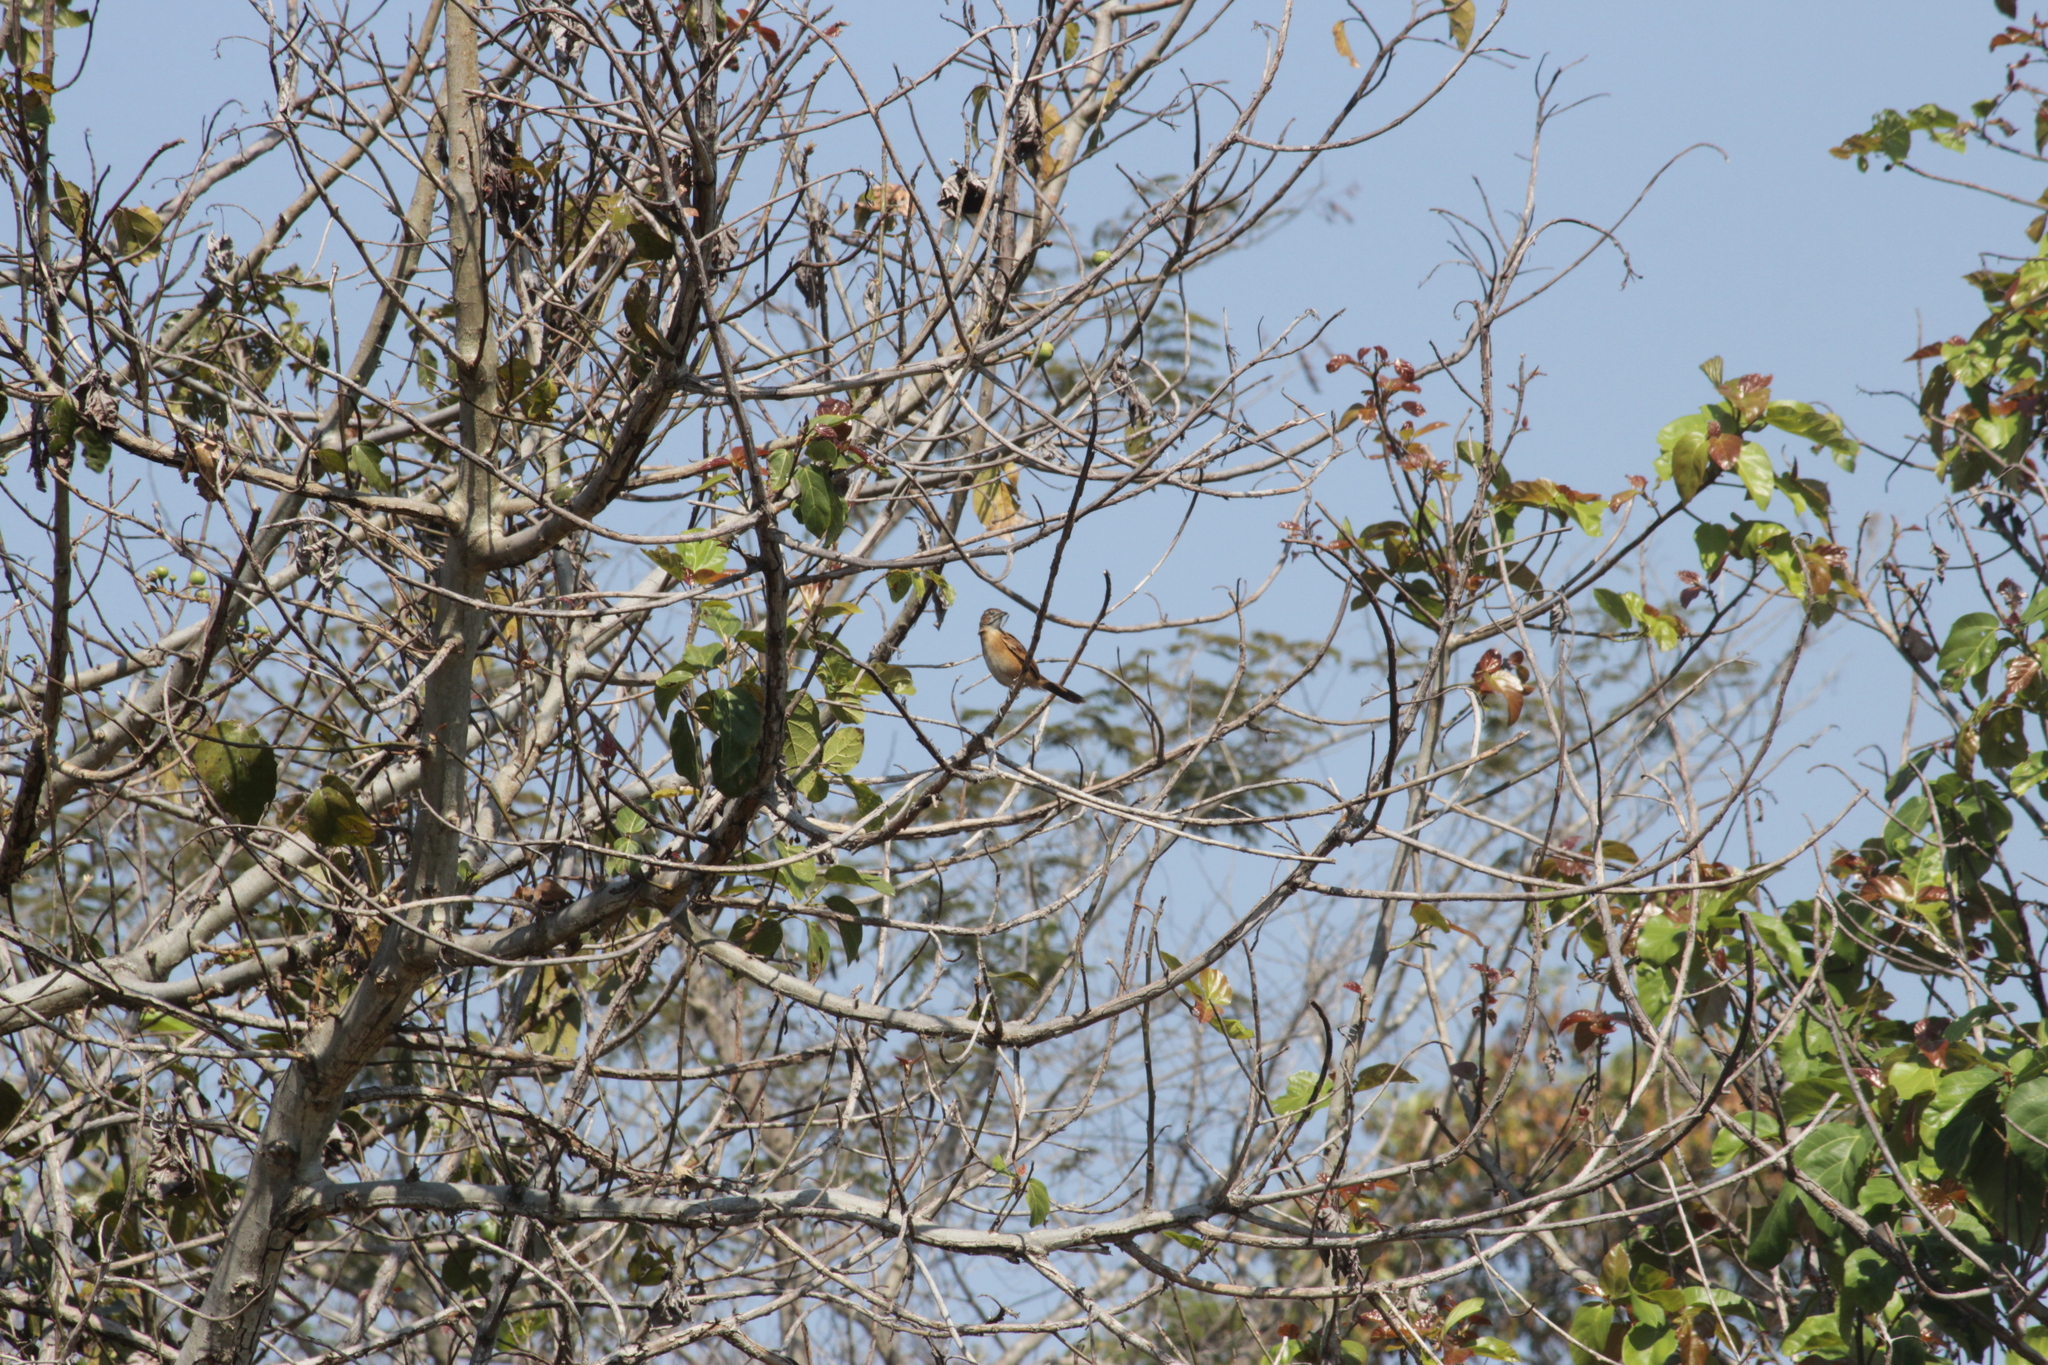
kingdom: Animalia
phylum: Chordata
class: Aves
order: Passeriformes
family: Macrosphenidae
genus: Melocichla
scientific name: Melocichla mentalis
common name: Moustached grass warbler
